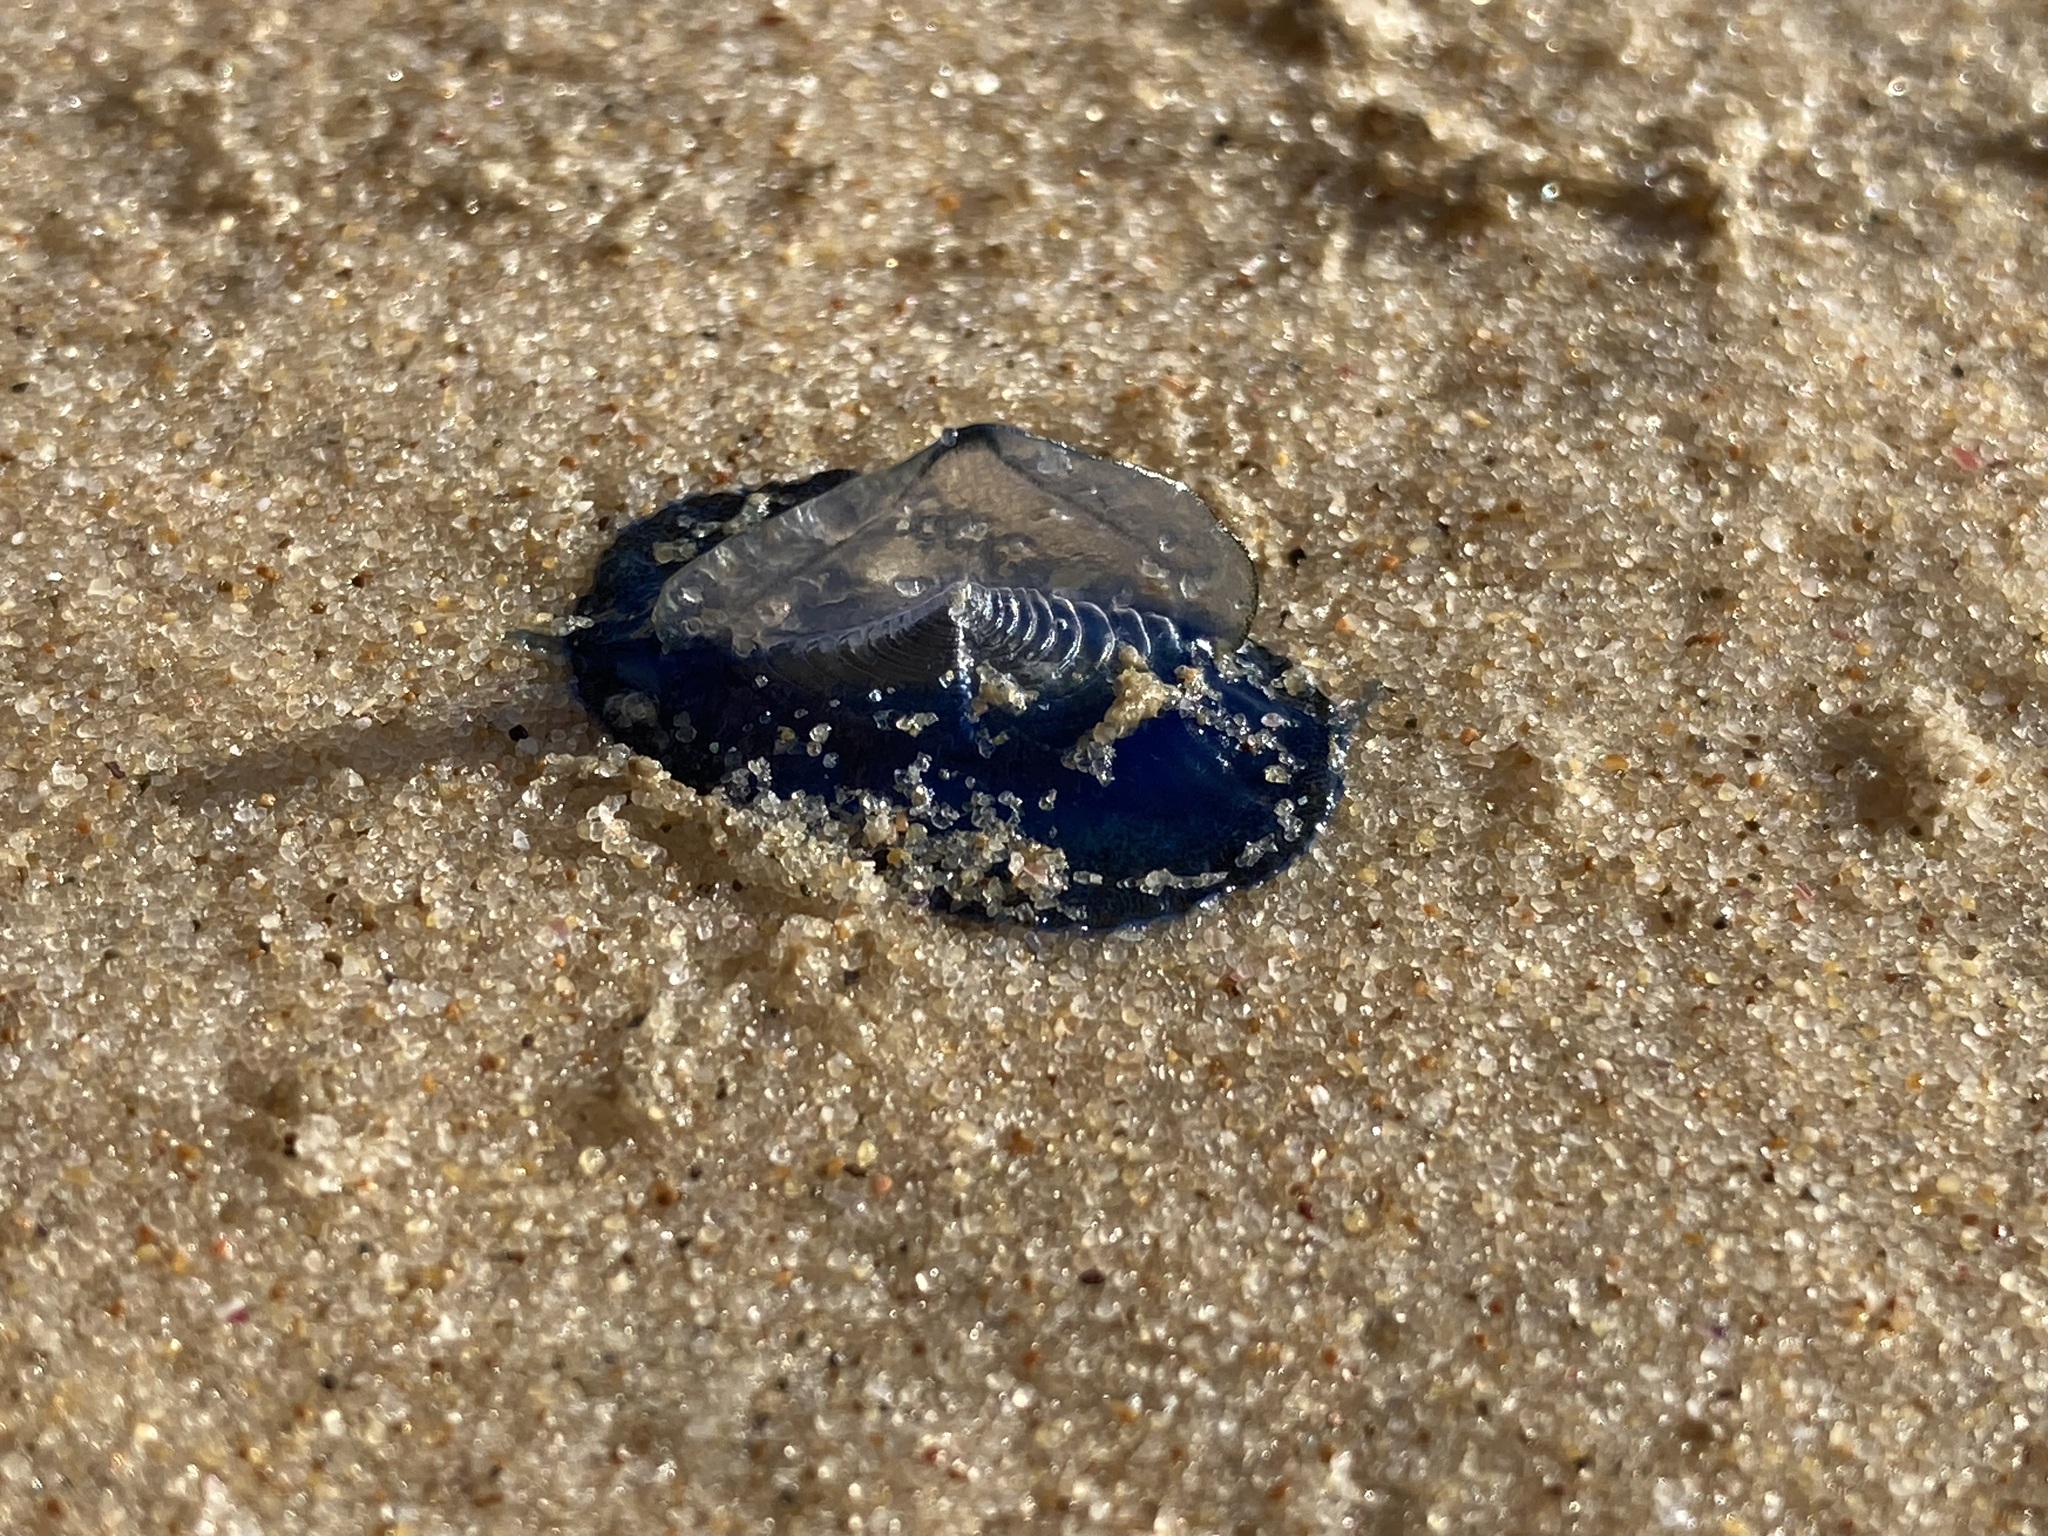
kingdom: Animalia
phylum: Cnidaria
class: Hydrozoa
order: Anthoathecata
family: Porpitidae
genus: Velella
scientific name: Velella velella
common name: By-the-wind-sailor
